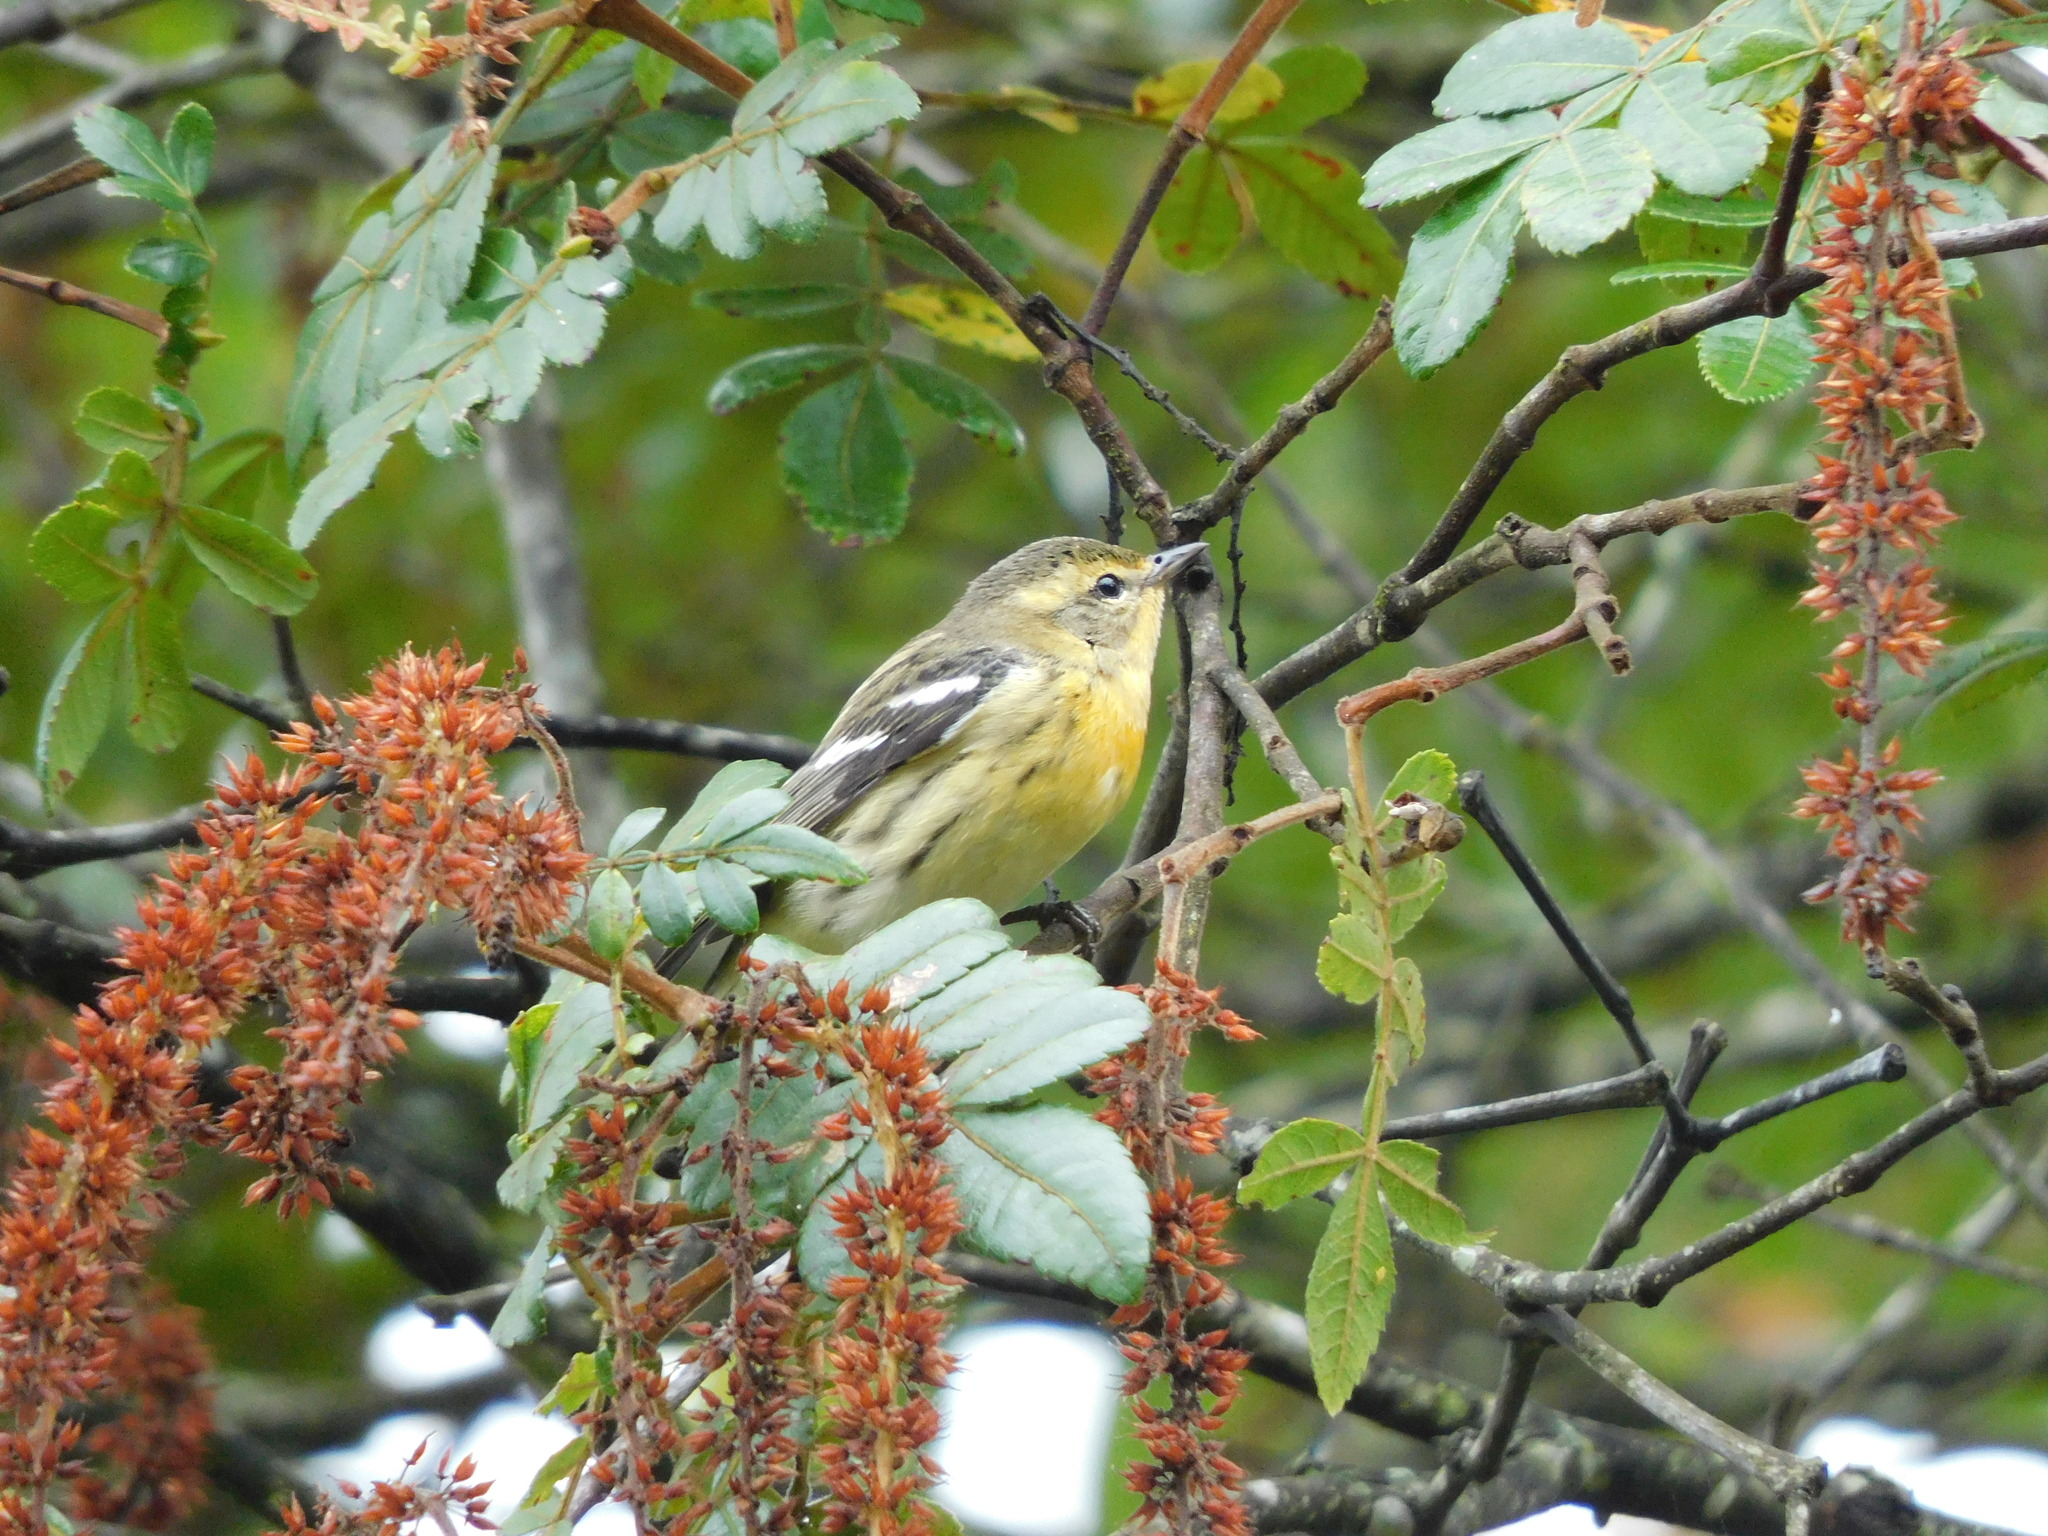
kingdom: Animalia
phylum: Chordata
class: Aves
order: Passeriformes
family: Parulidae
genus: Setophaga
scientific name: Setophaga fusca
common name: Blackburnian warbler
